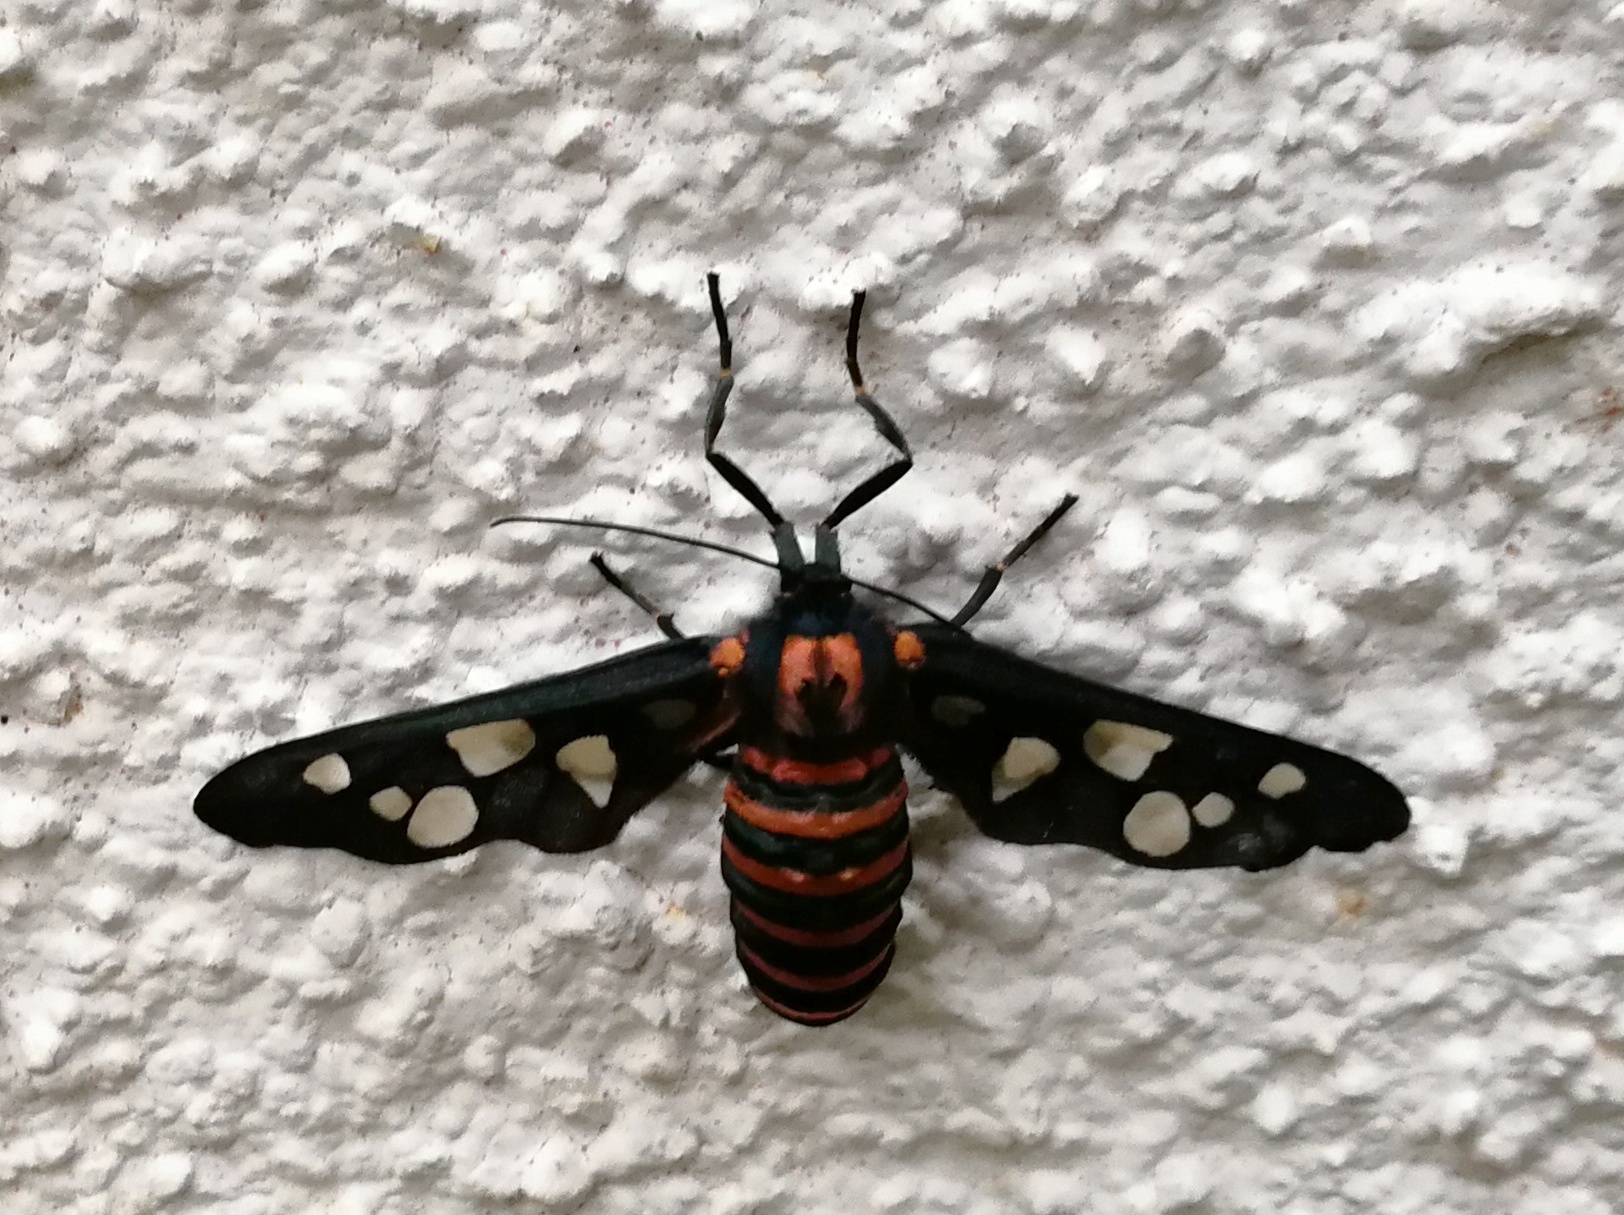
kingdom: Animalia
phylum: Arthropoda
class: Insecta
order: Lepidoptera
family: Erebidae
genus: Amata
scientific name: Amata passalis
